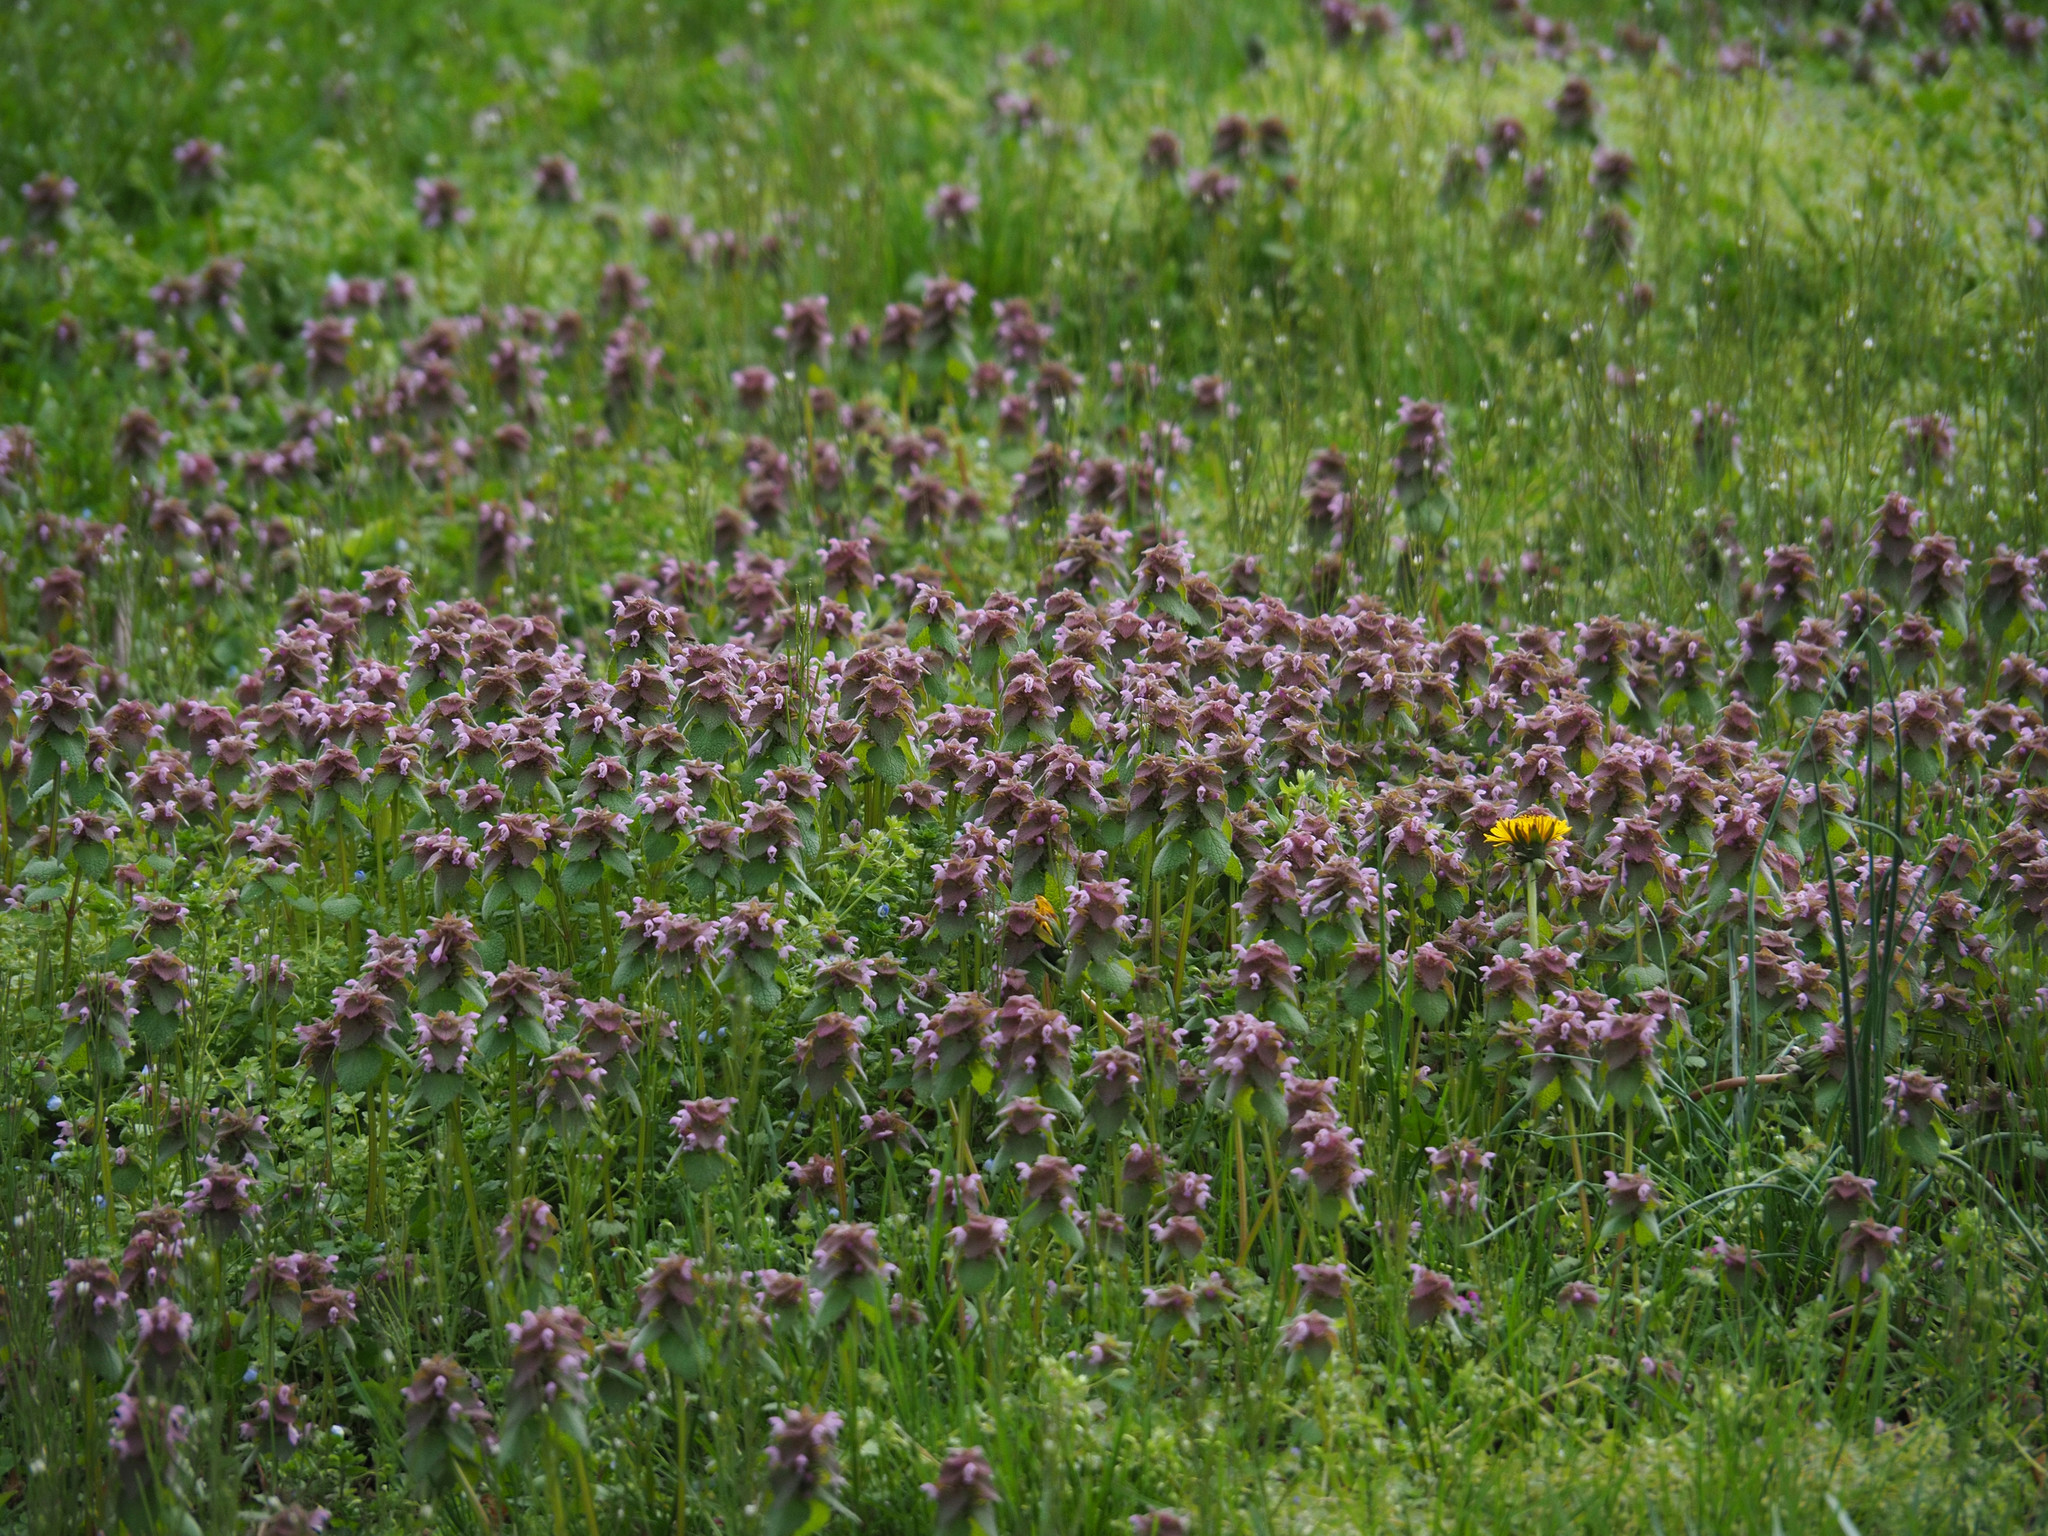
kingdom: Plantae
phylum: Tracheophyta
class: Magnoliopsida
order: Lamiales
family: Lamiaceae
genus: Lamium
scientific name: Lamium purpureum
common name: Red dead-nettle
